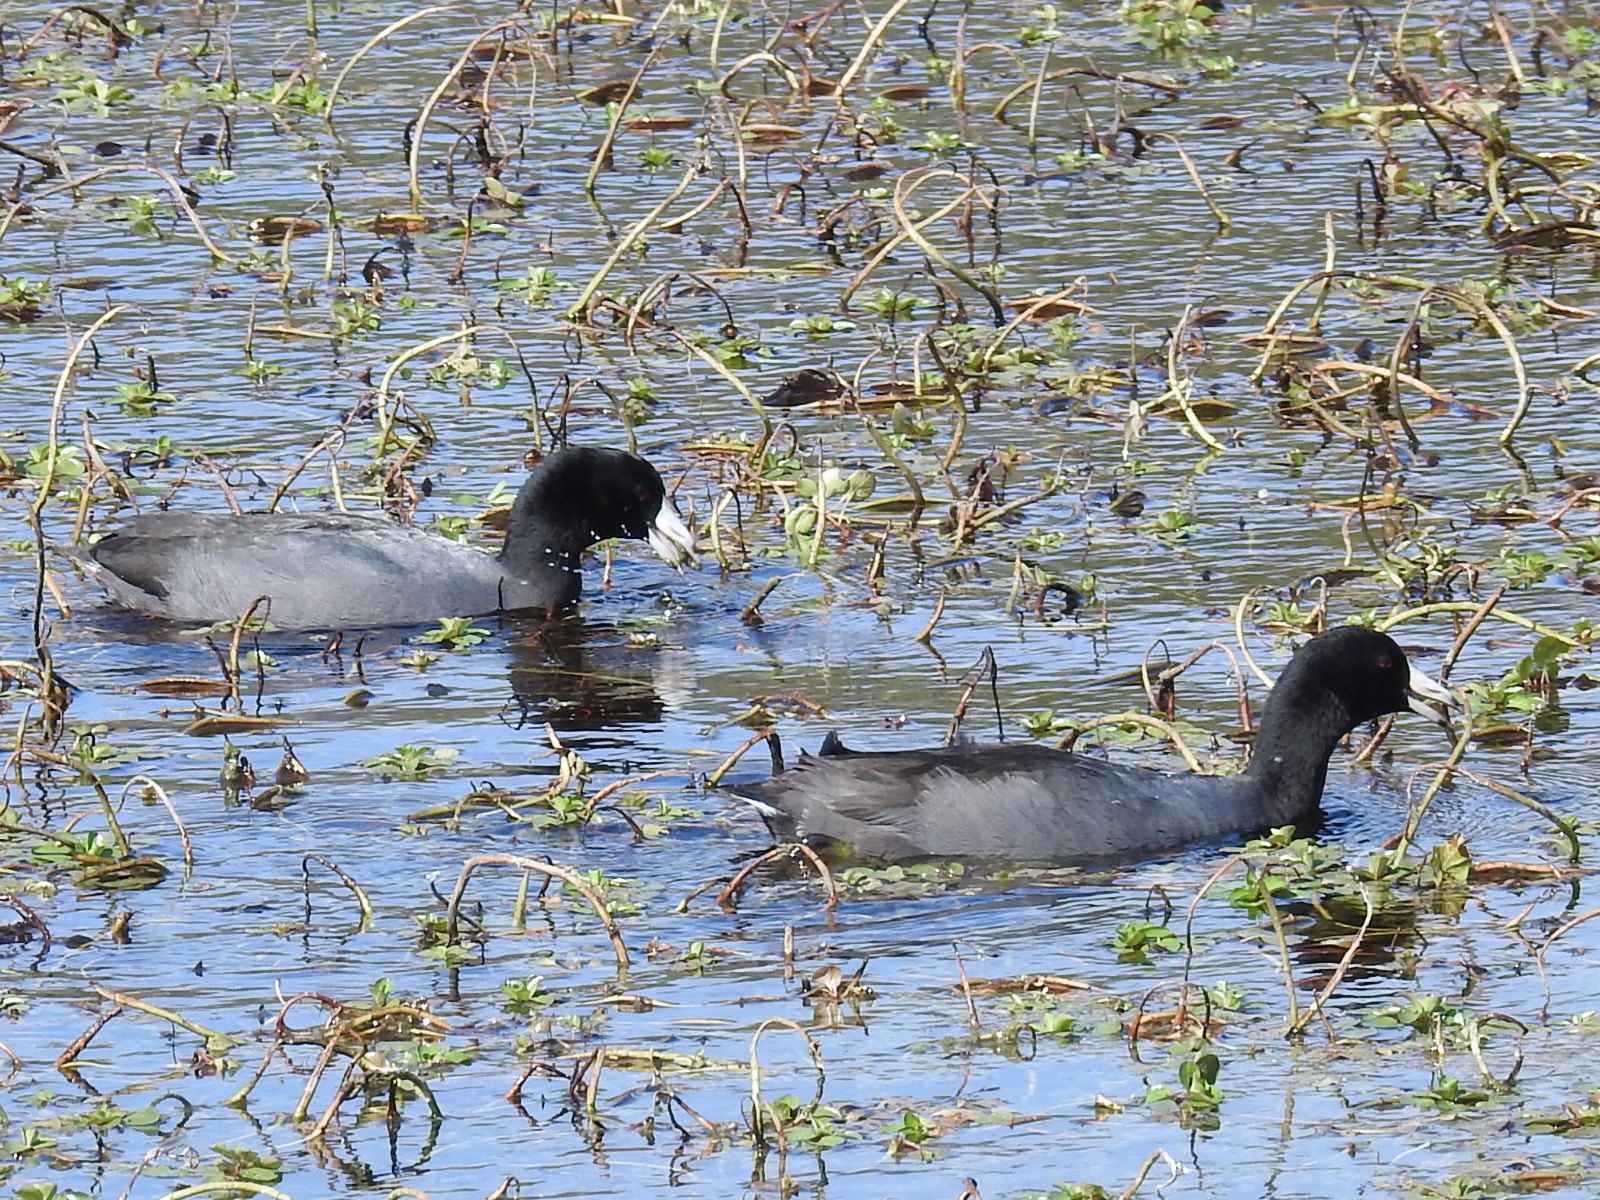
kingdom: Animalia
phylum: Chordata
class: Aves
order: Gruiformes
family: Rallidae
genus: Fulica
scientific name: Fulica americana
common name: American coot
